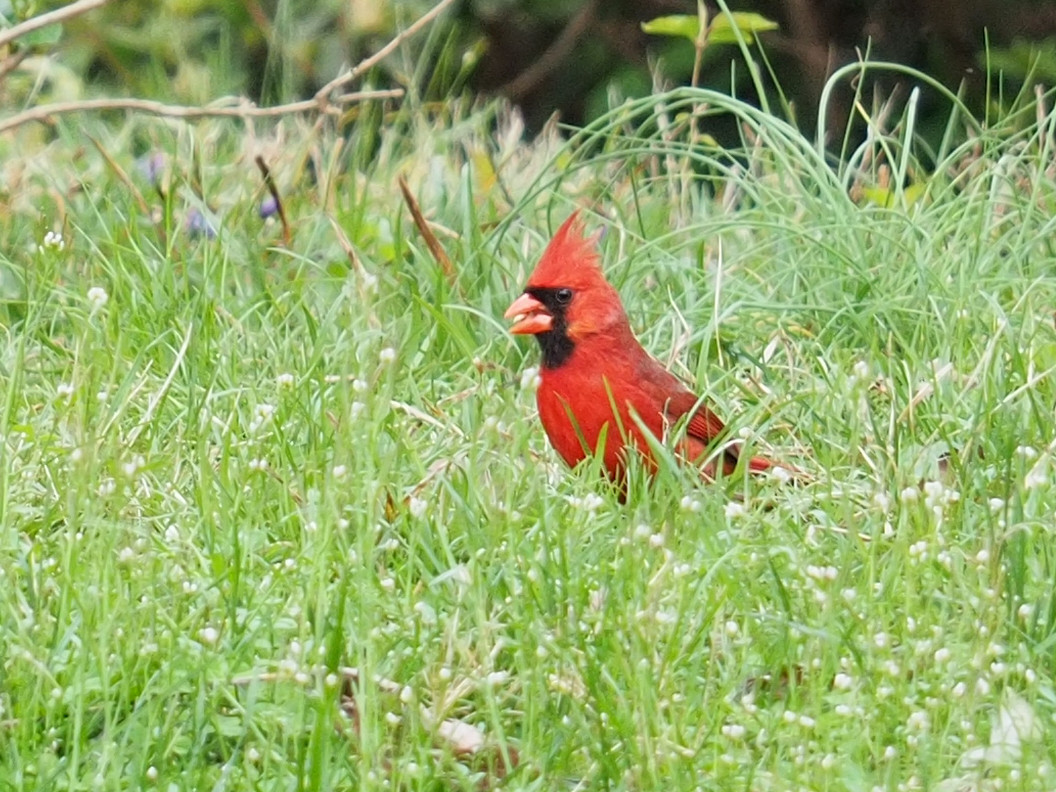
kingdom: Animalia
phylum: Chordata
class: Aves
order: Passeriformes
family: Cardinalidae
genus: Cardinalis
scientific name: Cardinalis cardinalis
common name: Northern cardinal
